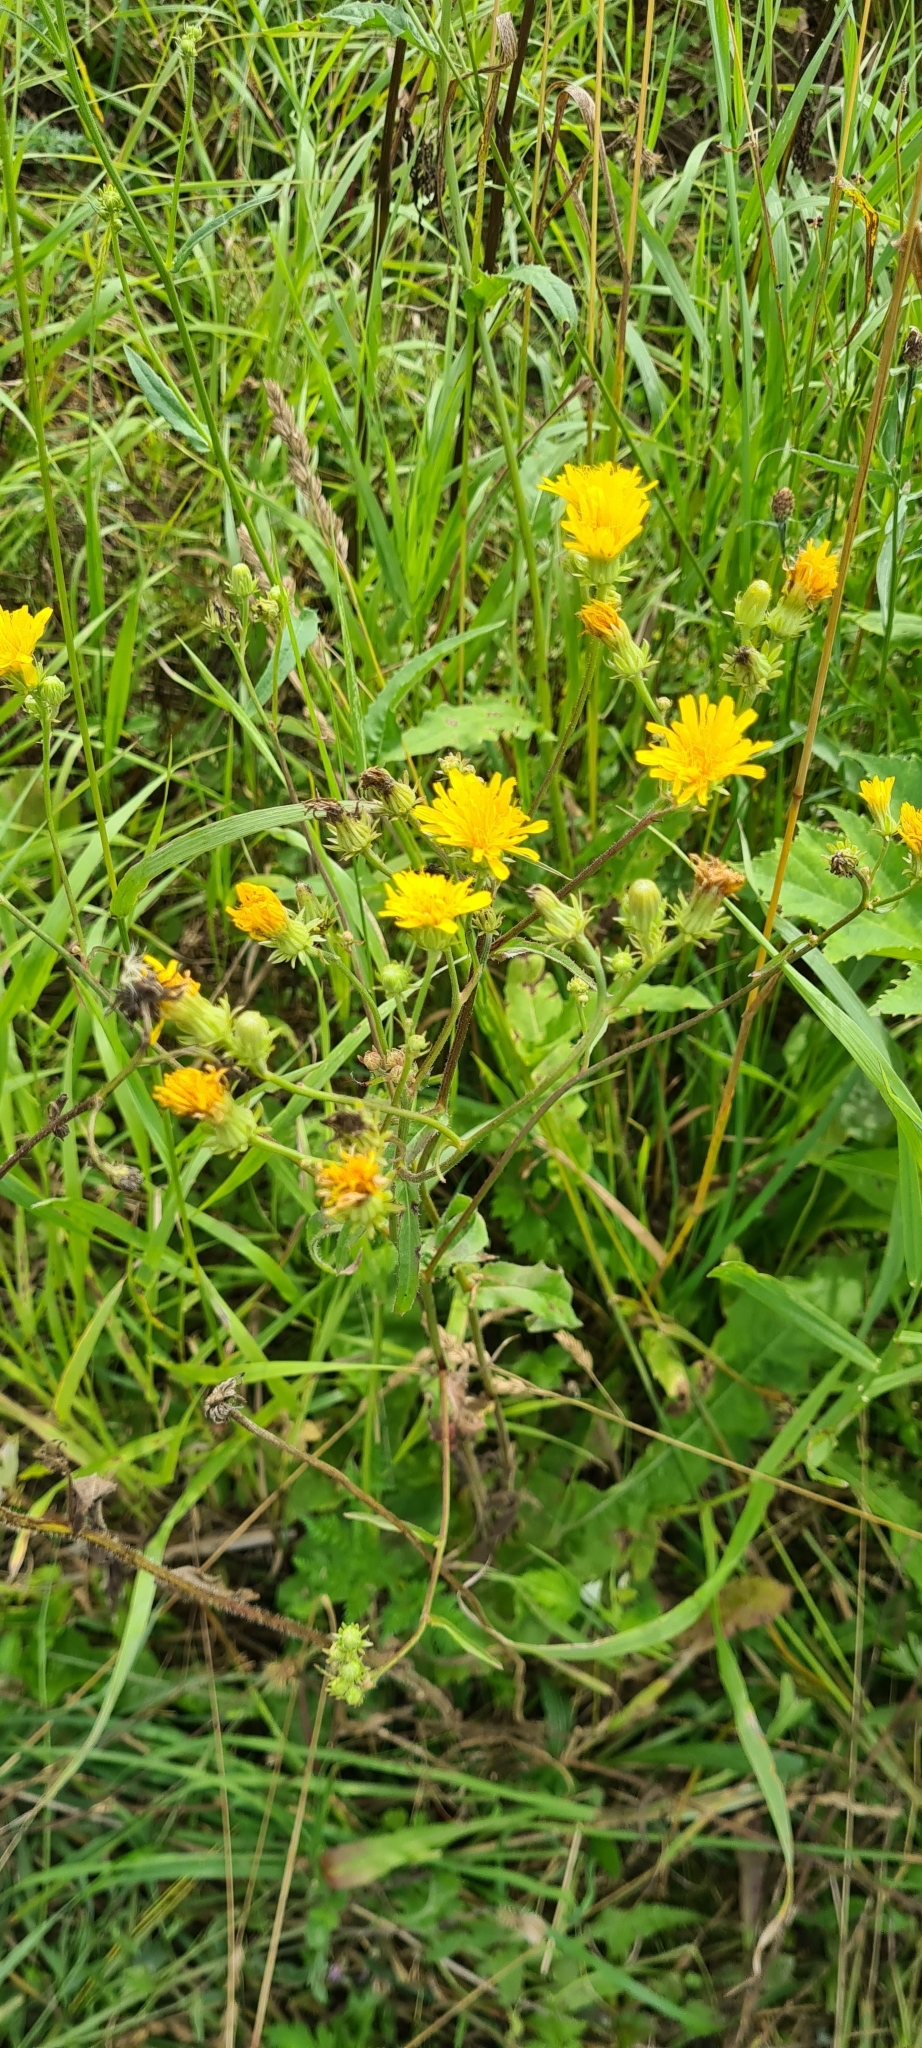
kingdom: Plantae
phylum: Tracheophyta
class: Magnoliopsida
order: Asterales
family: Asteraceae
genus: Picris
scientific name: Picris hieracioides
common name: Hawkweed oxtongue
